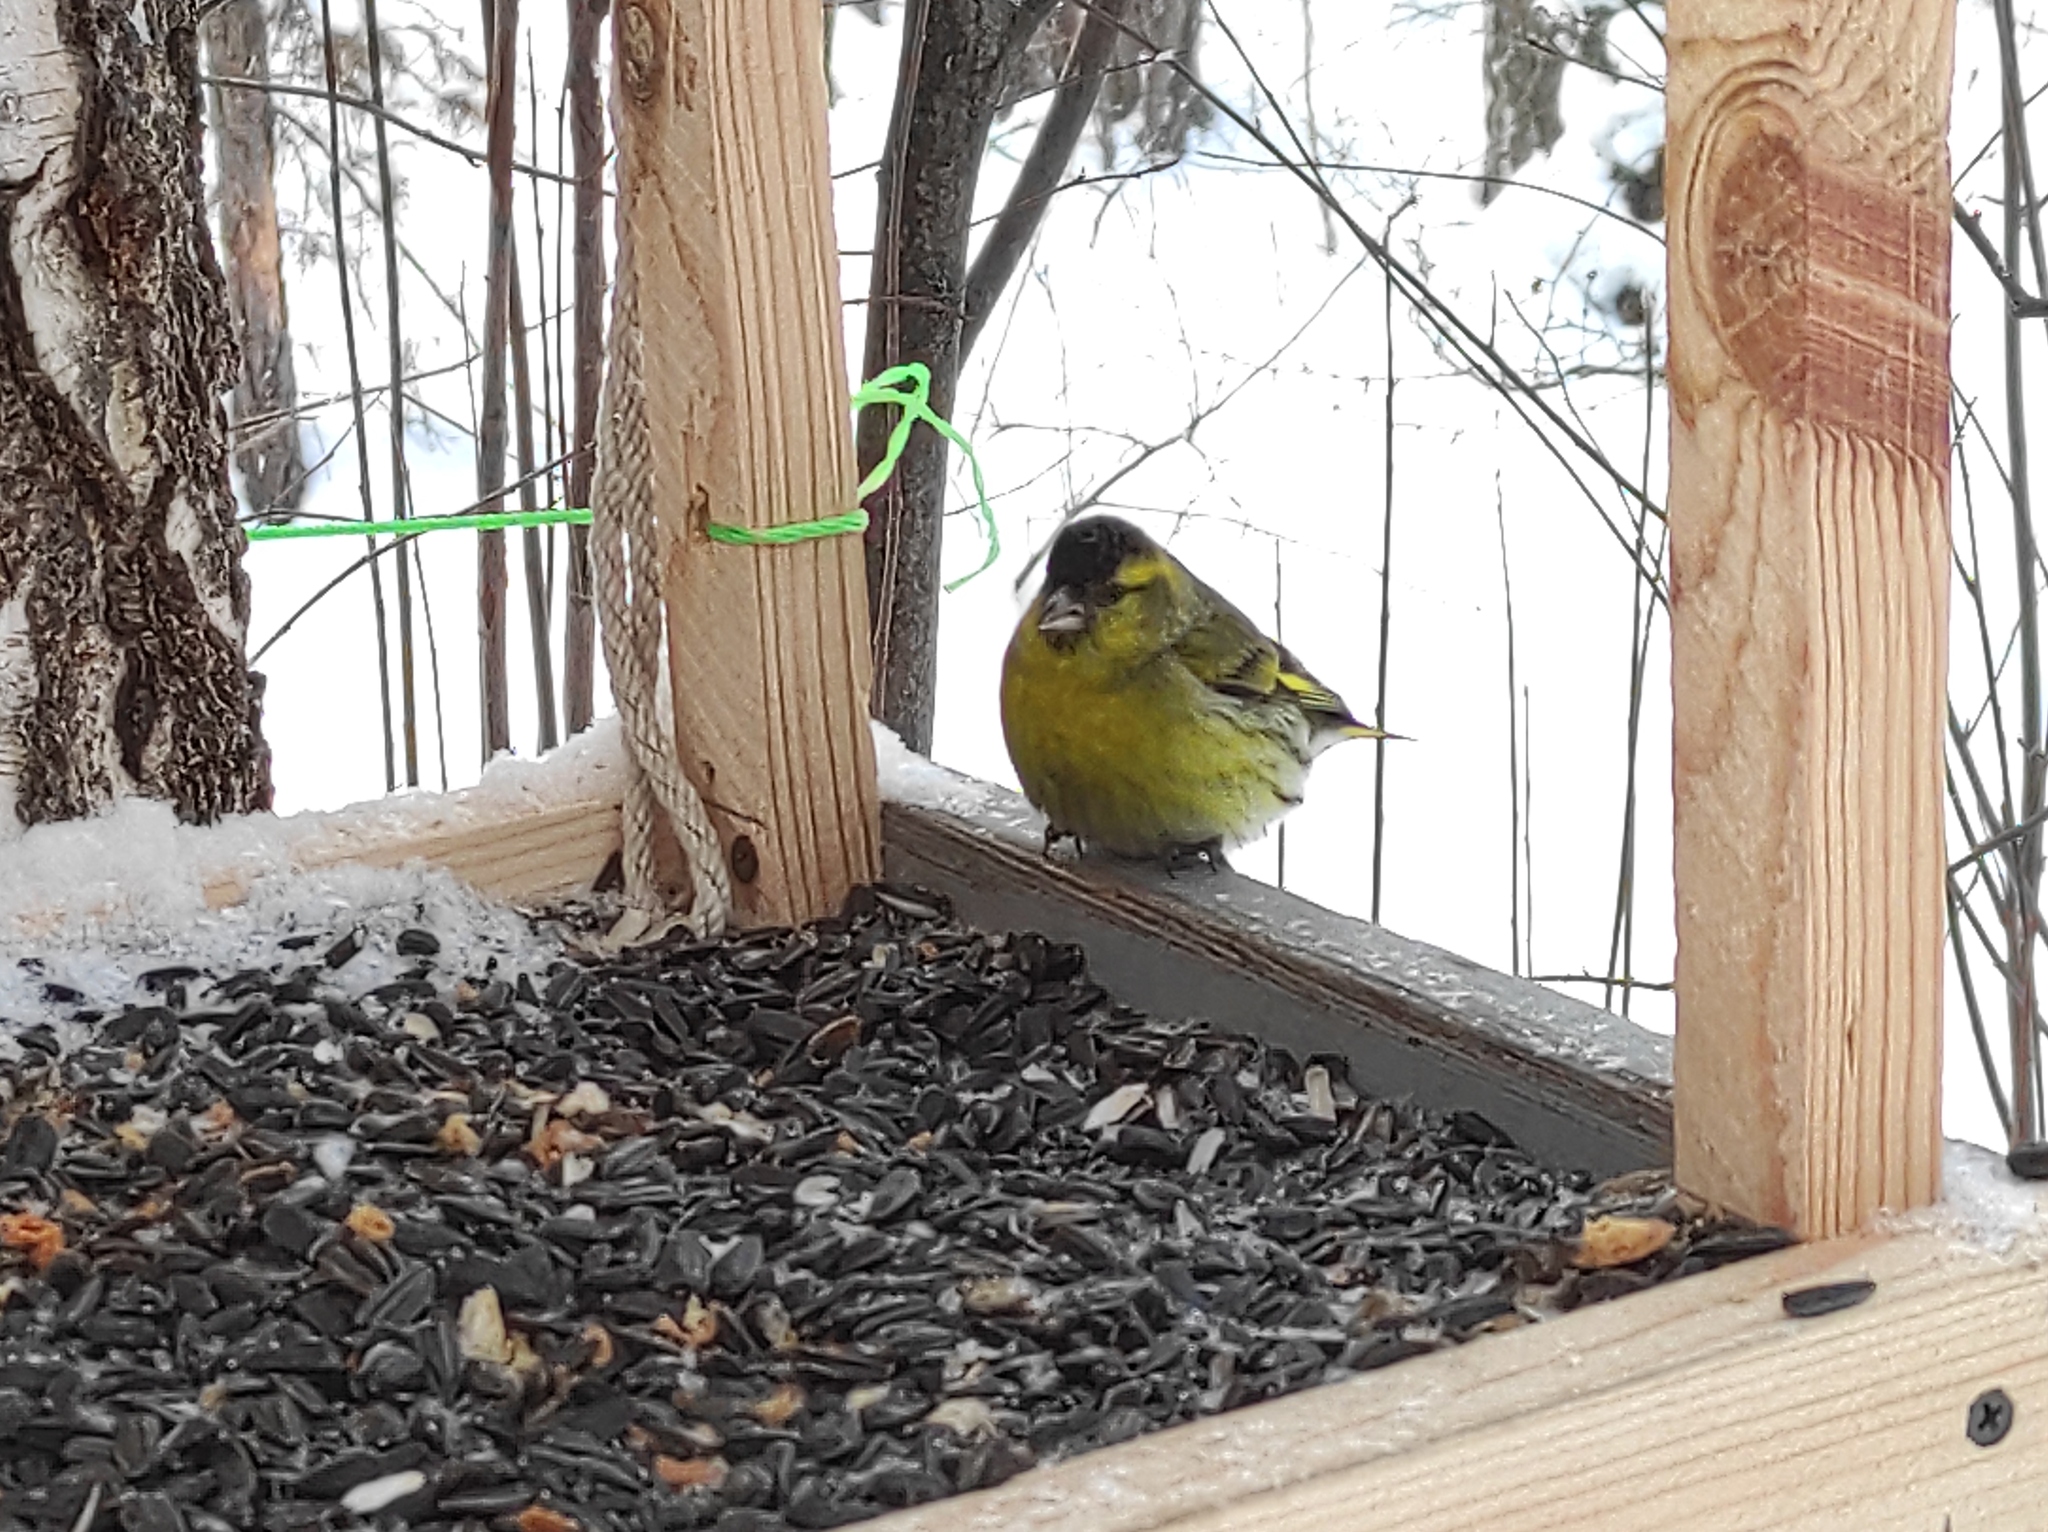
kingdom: Animalia
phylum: Chordata
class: Aves
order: Passeriformes
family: Fringillidae
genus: Spinus
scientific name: Spinus spinus
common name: Eurasian siskin
